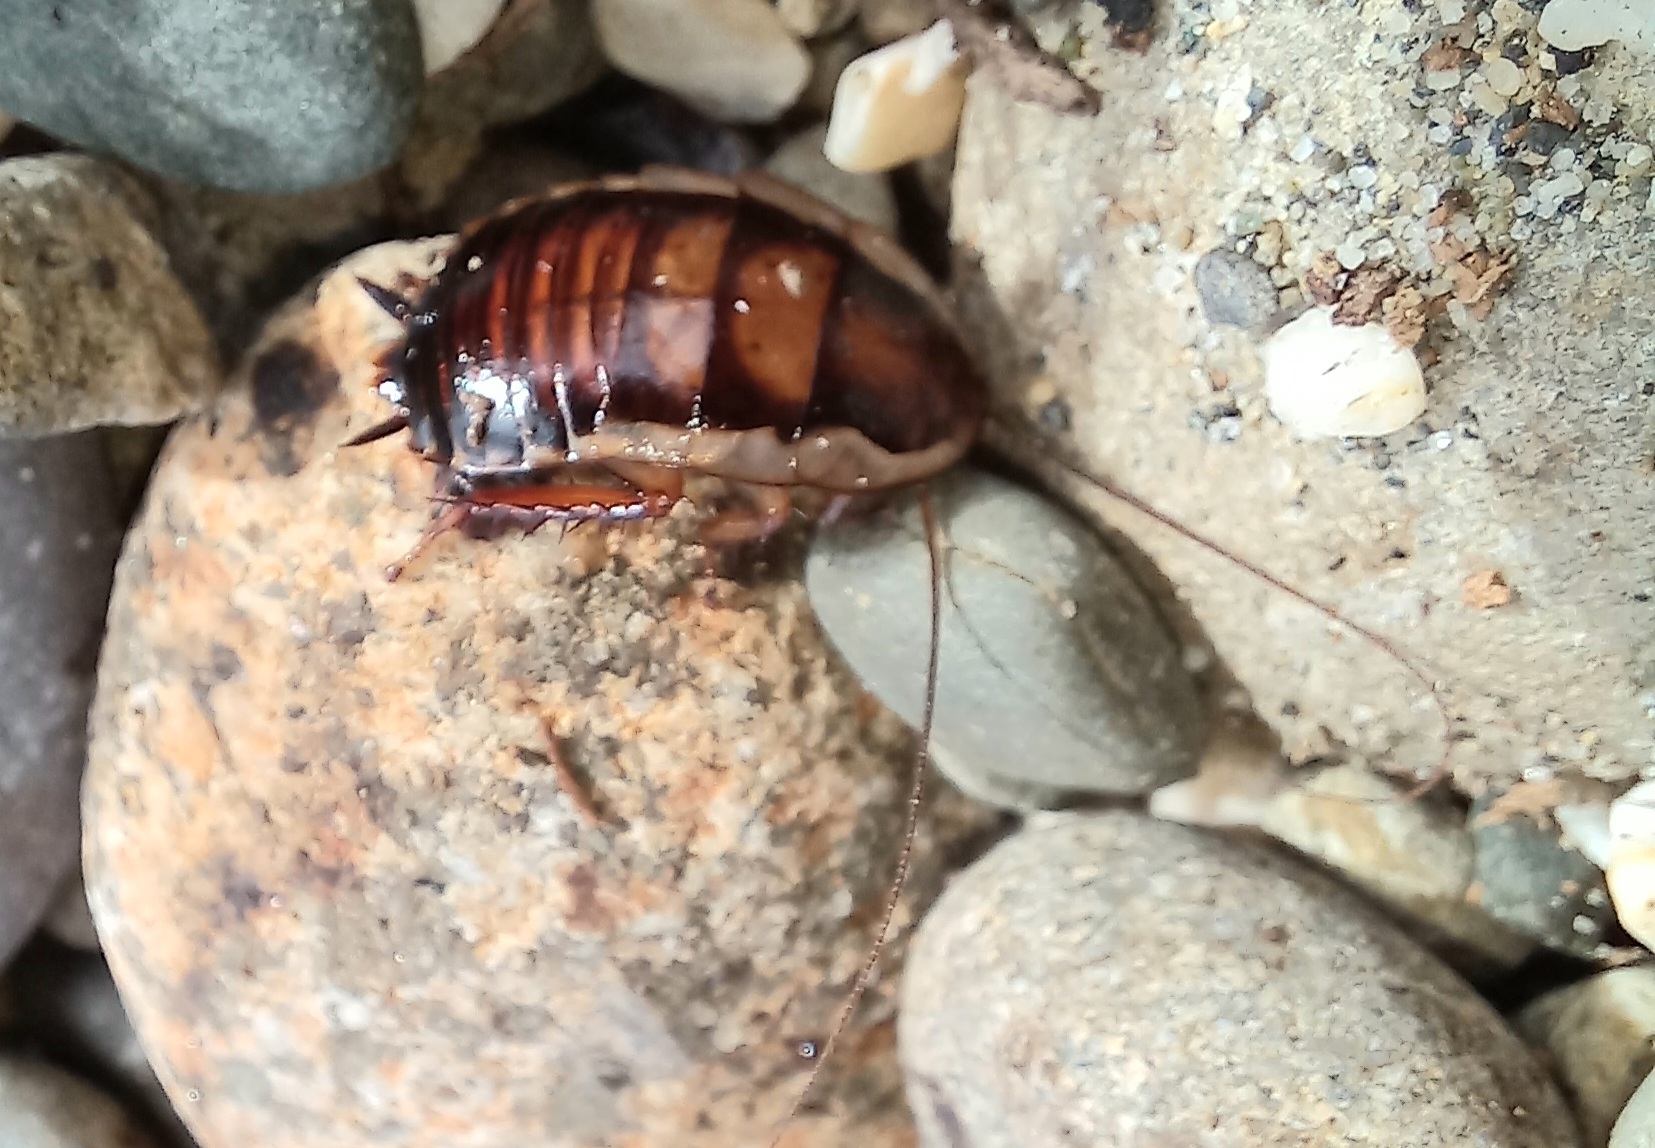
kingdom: Animalia
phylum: Arthropoda
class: Insecta
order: Blattodea
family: Blattidae
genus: Drymaplaneta
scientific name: Drymaplaneta semivitta
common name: Gisborne cockroach
